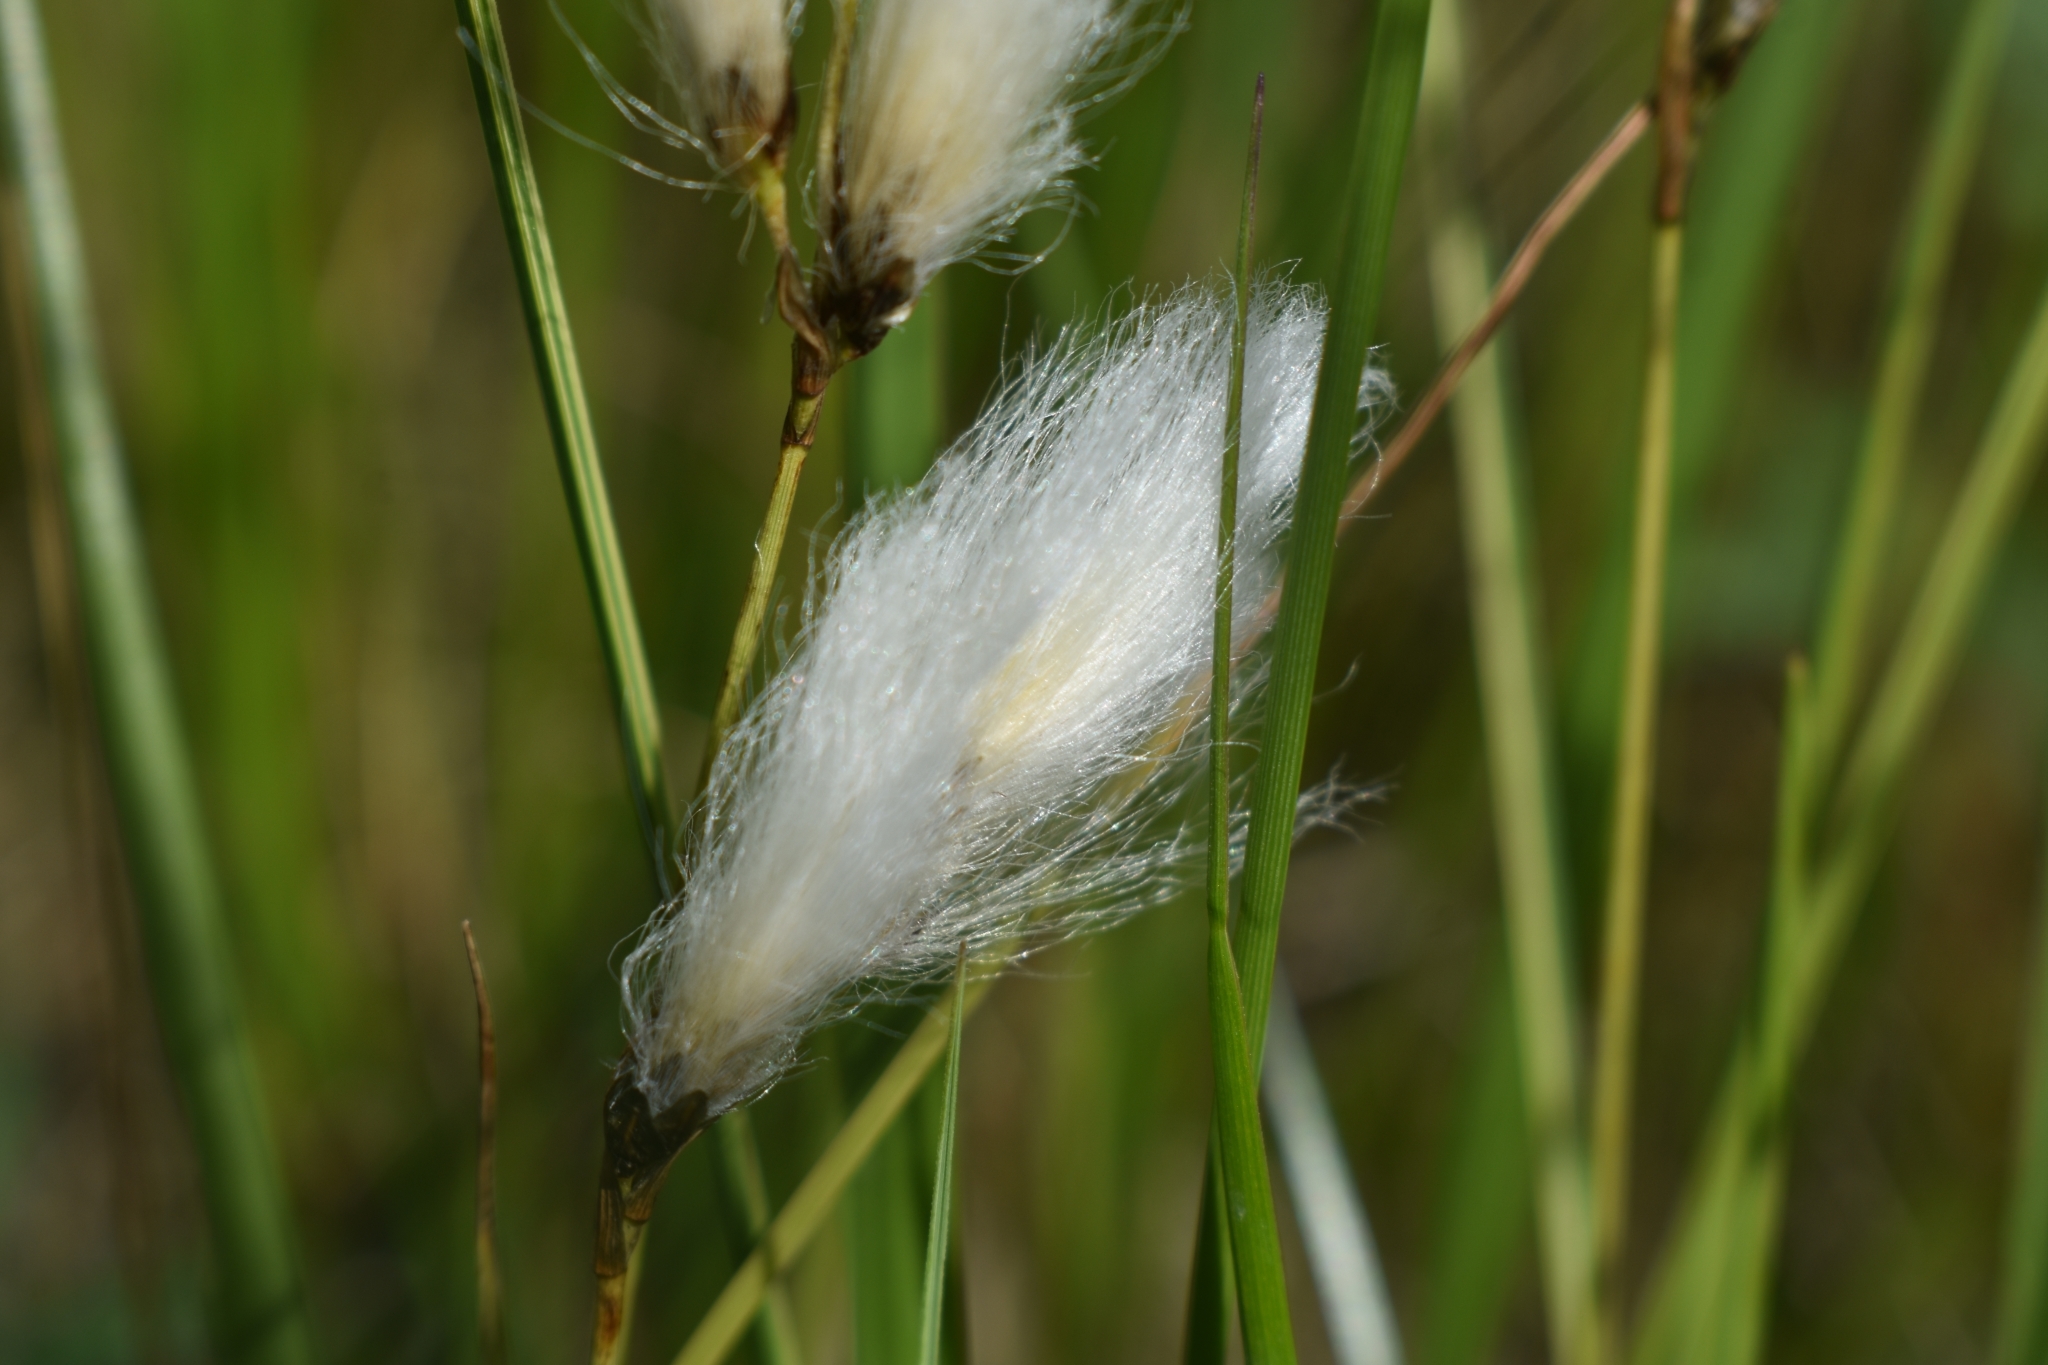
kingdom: Plantae
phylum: Tracheophyta
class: Liliopsida
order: Poales
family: Cyperaceae
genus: Eriophorum
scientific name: Eriophorum angustifolium
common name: Common cottongrass
